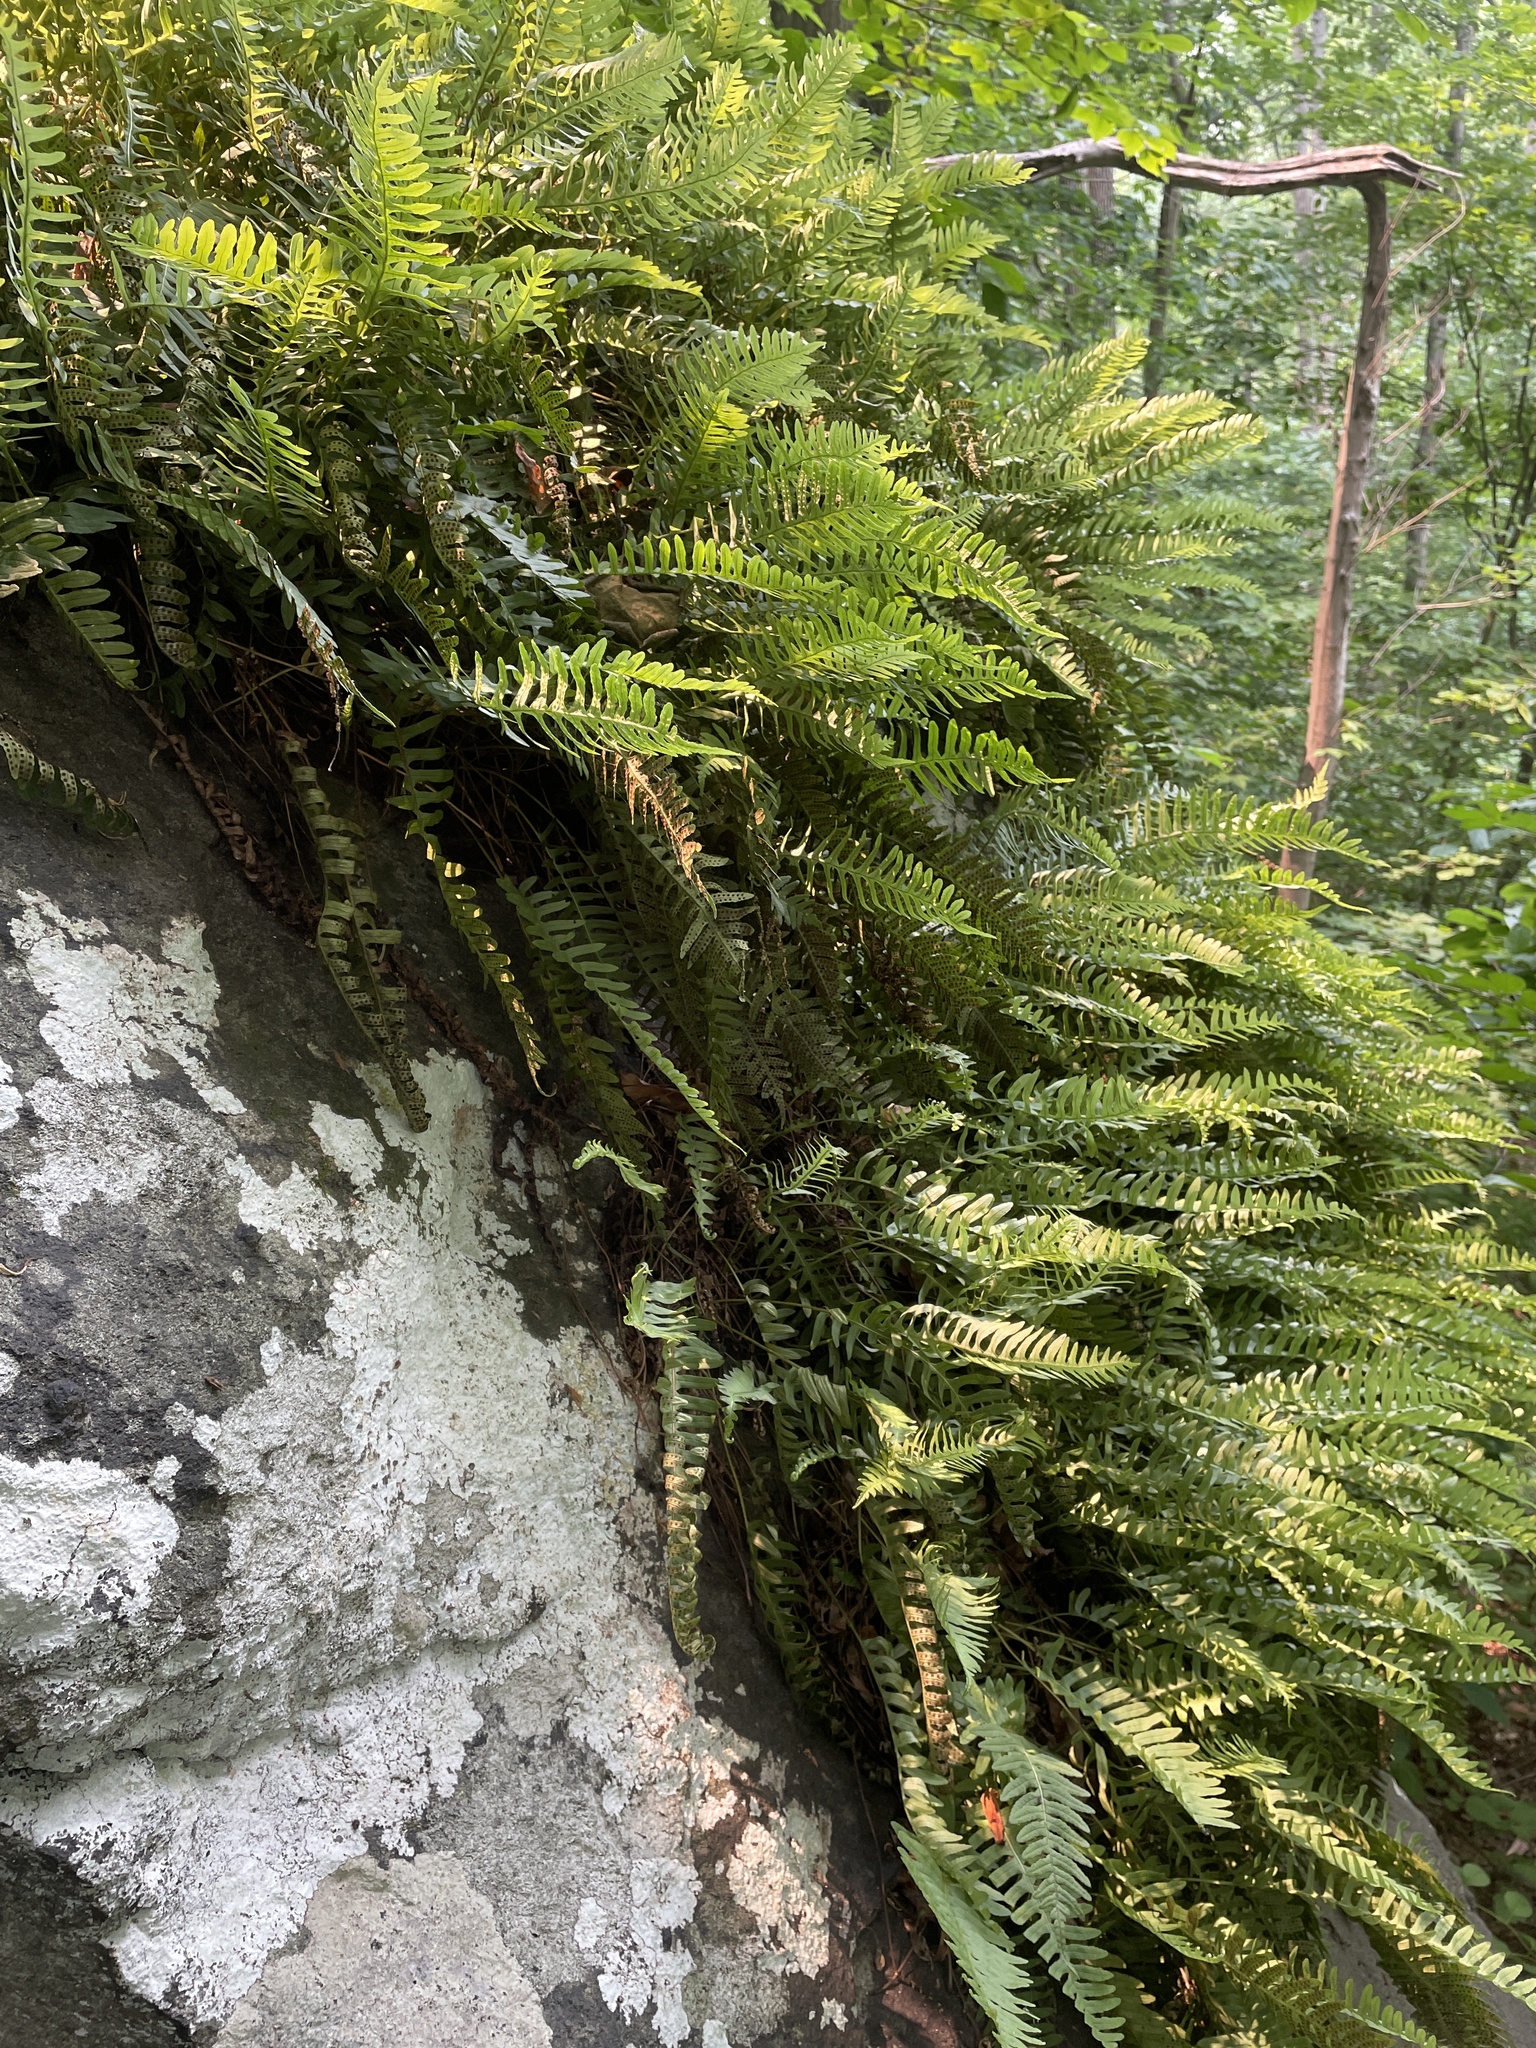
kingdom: Plantae
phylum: Tracheophyta
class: Polypodiopsida
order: Polypodiales
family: Polypodiaceae
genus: Polypodium
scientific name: Polypodium virginianum
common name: American wall fern
